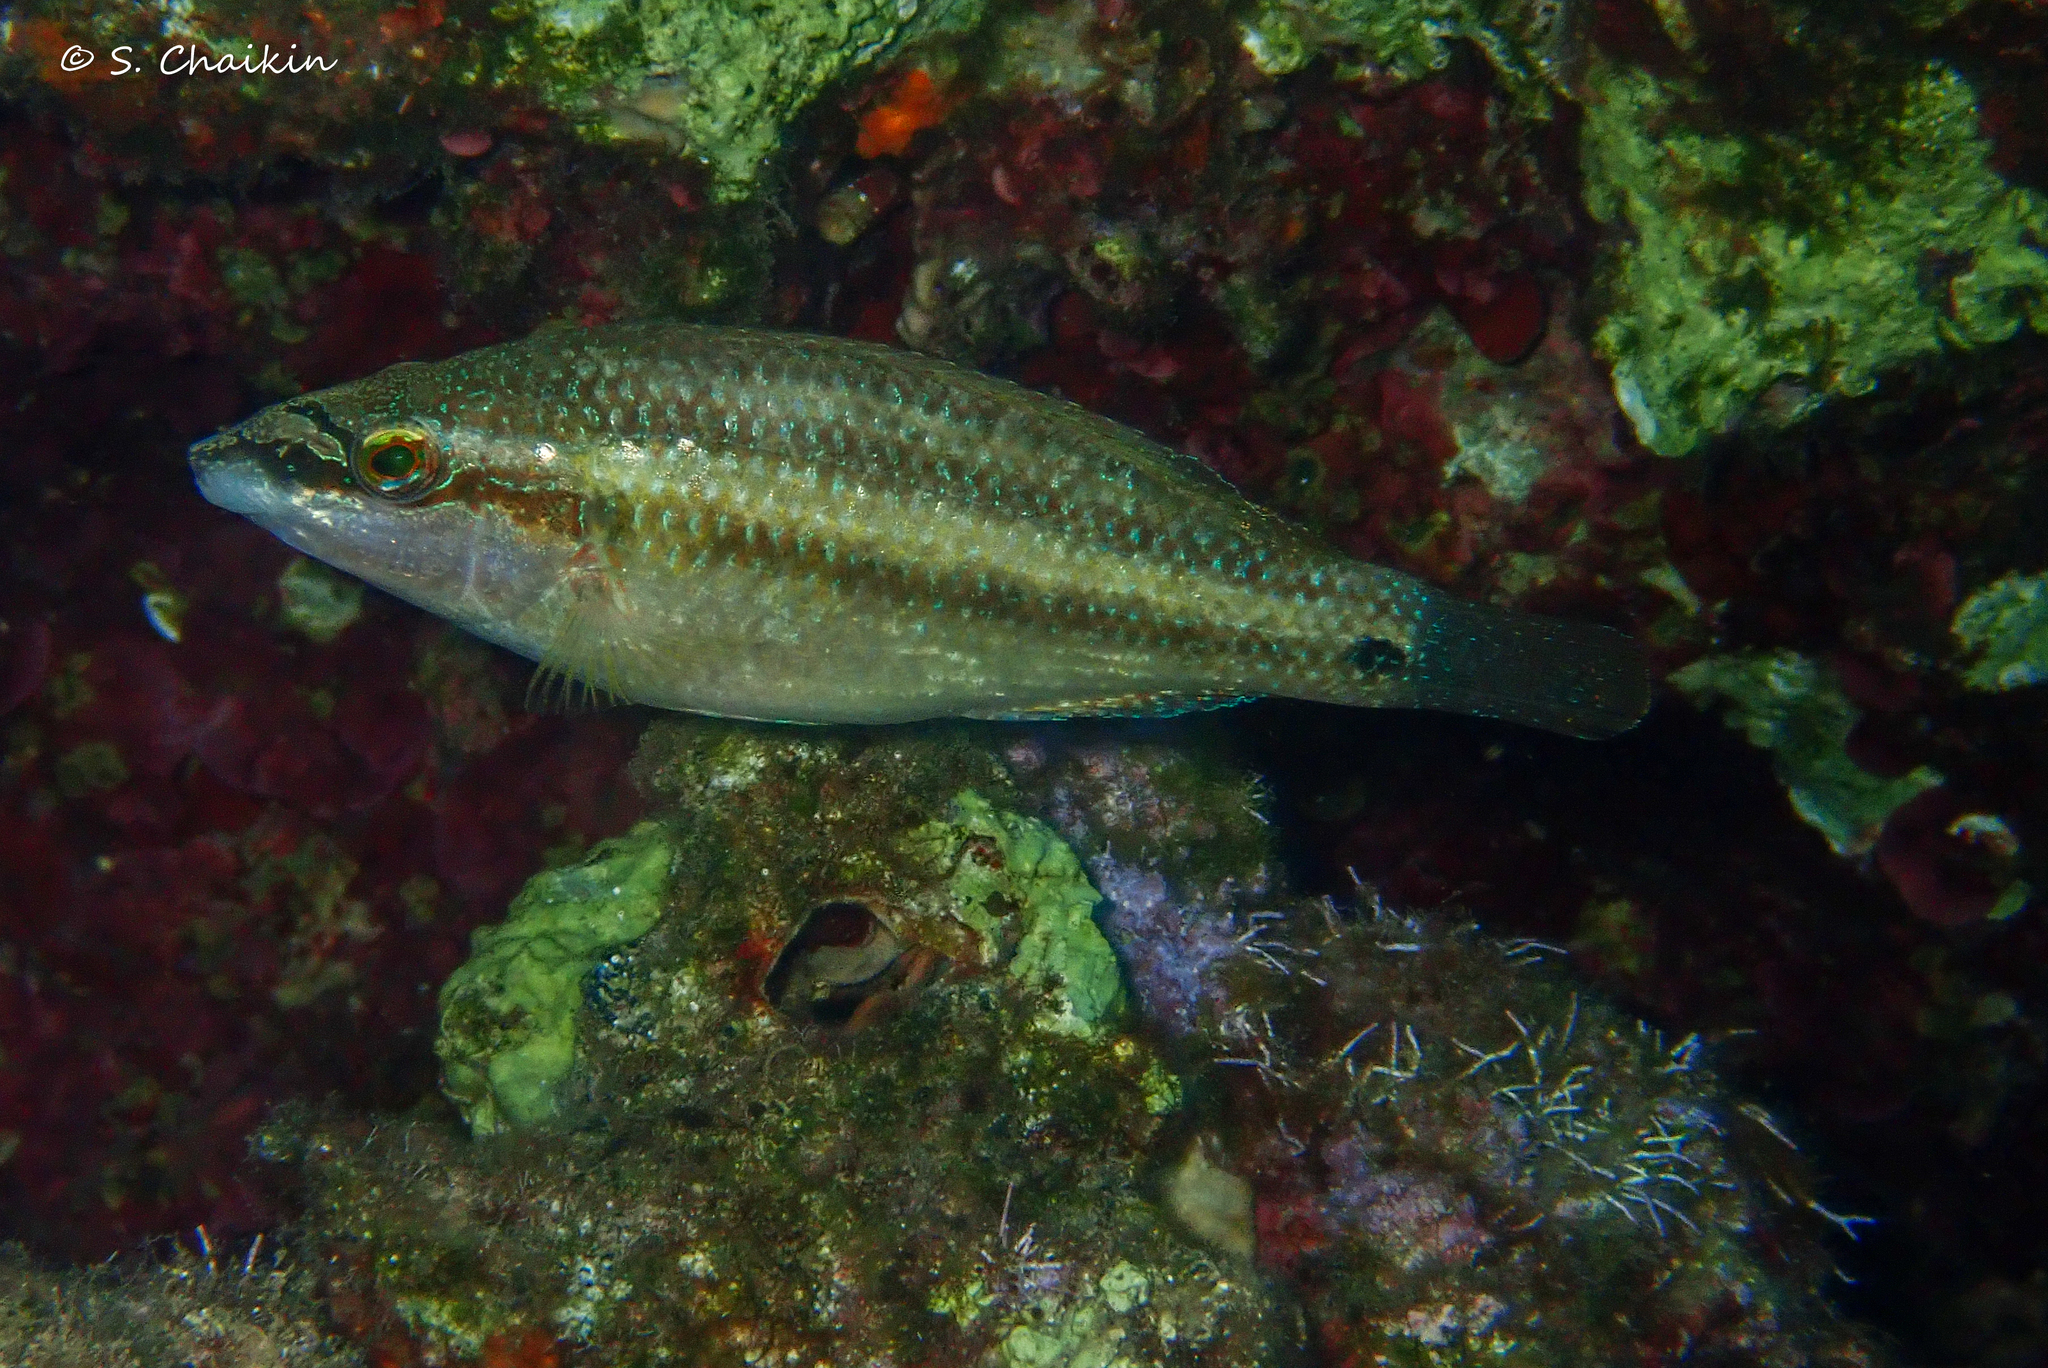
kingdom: Animalia
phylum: Chordata
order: Perciformes
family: Labridae
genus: Symphodus
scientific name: Symphodus tinca
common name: Peacock wrasse
